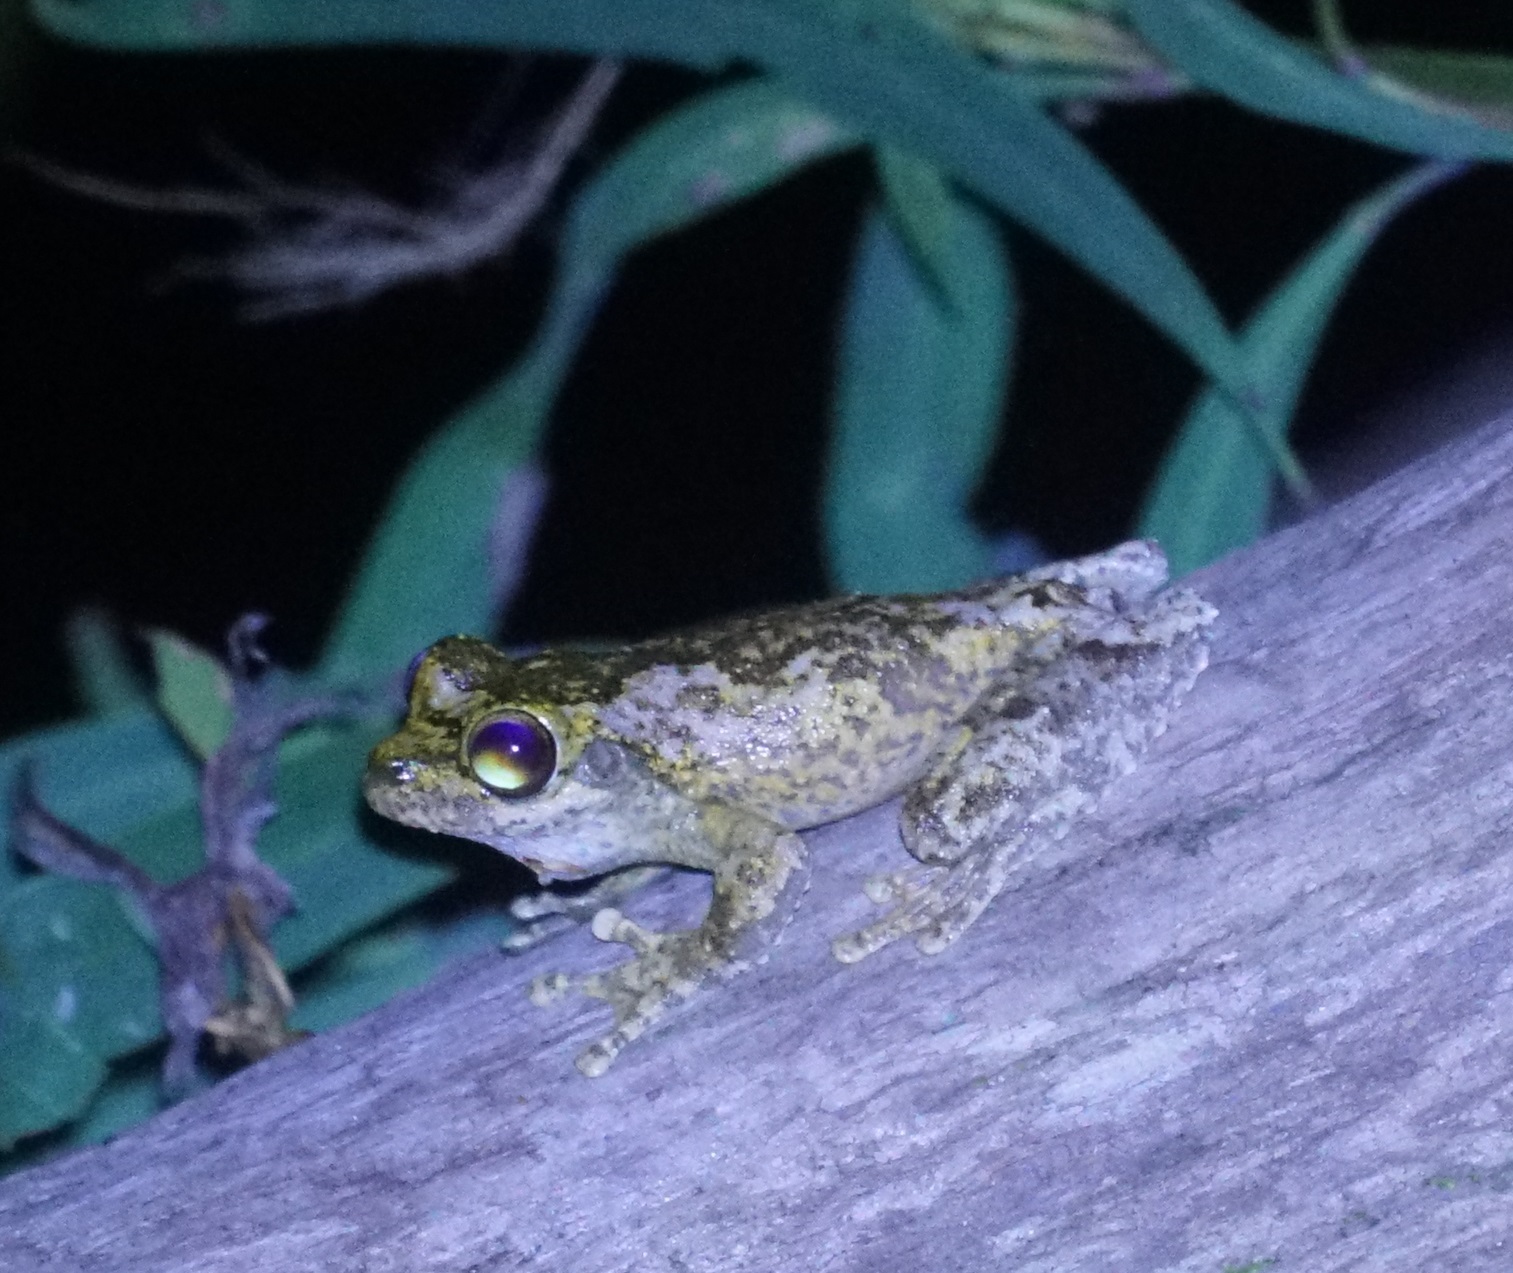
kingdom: Animalia
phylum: Chordata
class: Amphibia
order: Anura
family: Pelodryadidae
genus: Ranoidea
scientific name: Ranoidea myola
